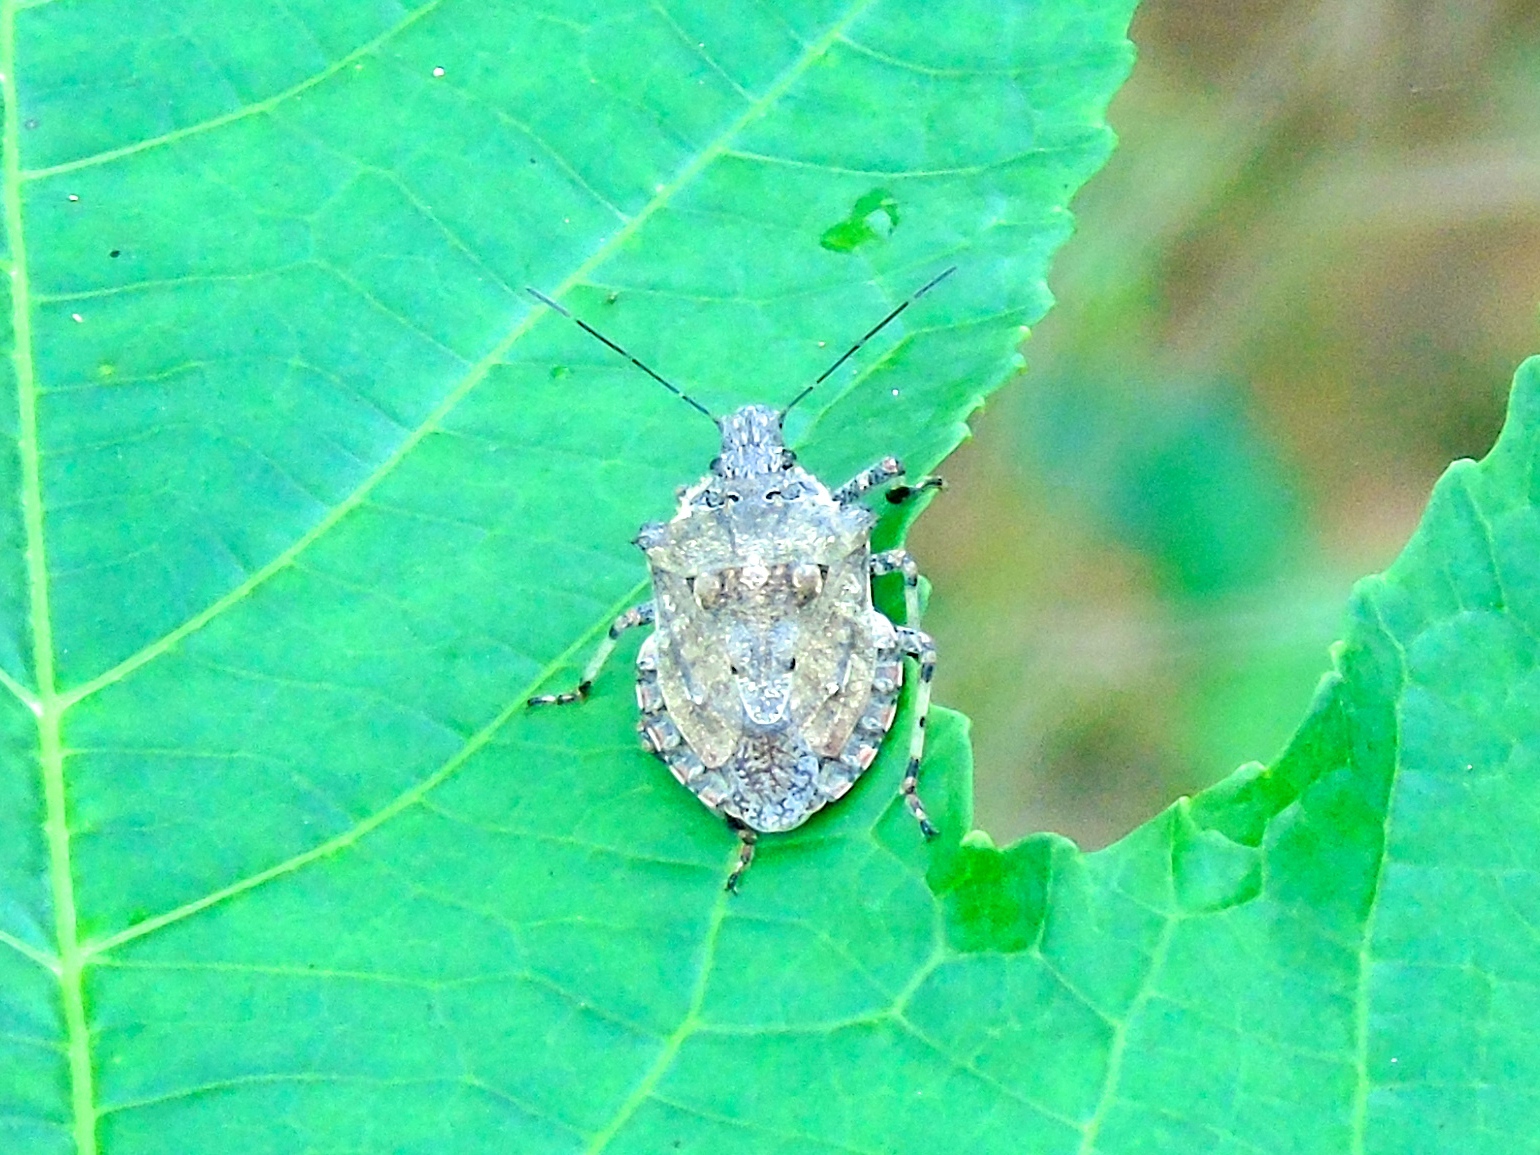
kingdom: Animalia
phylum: Arthropoda
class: Insecta
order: Hemiptera
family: Pentatomidae
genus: Brochymena
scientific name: Brochymena
